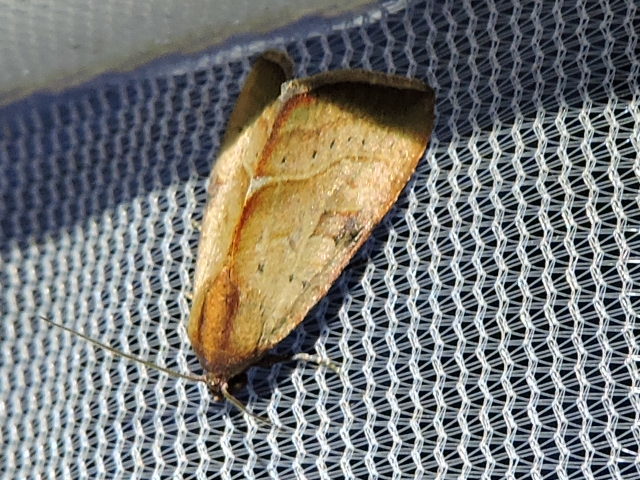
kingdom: Animalia
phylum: Arthropoda
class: Insecta
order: Lepidoptera
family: Noctuidae
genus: Galgula
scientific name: Galgula partita
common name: Wedgeling
